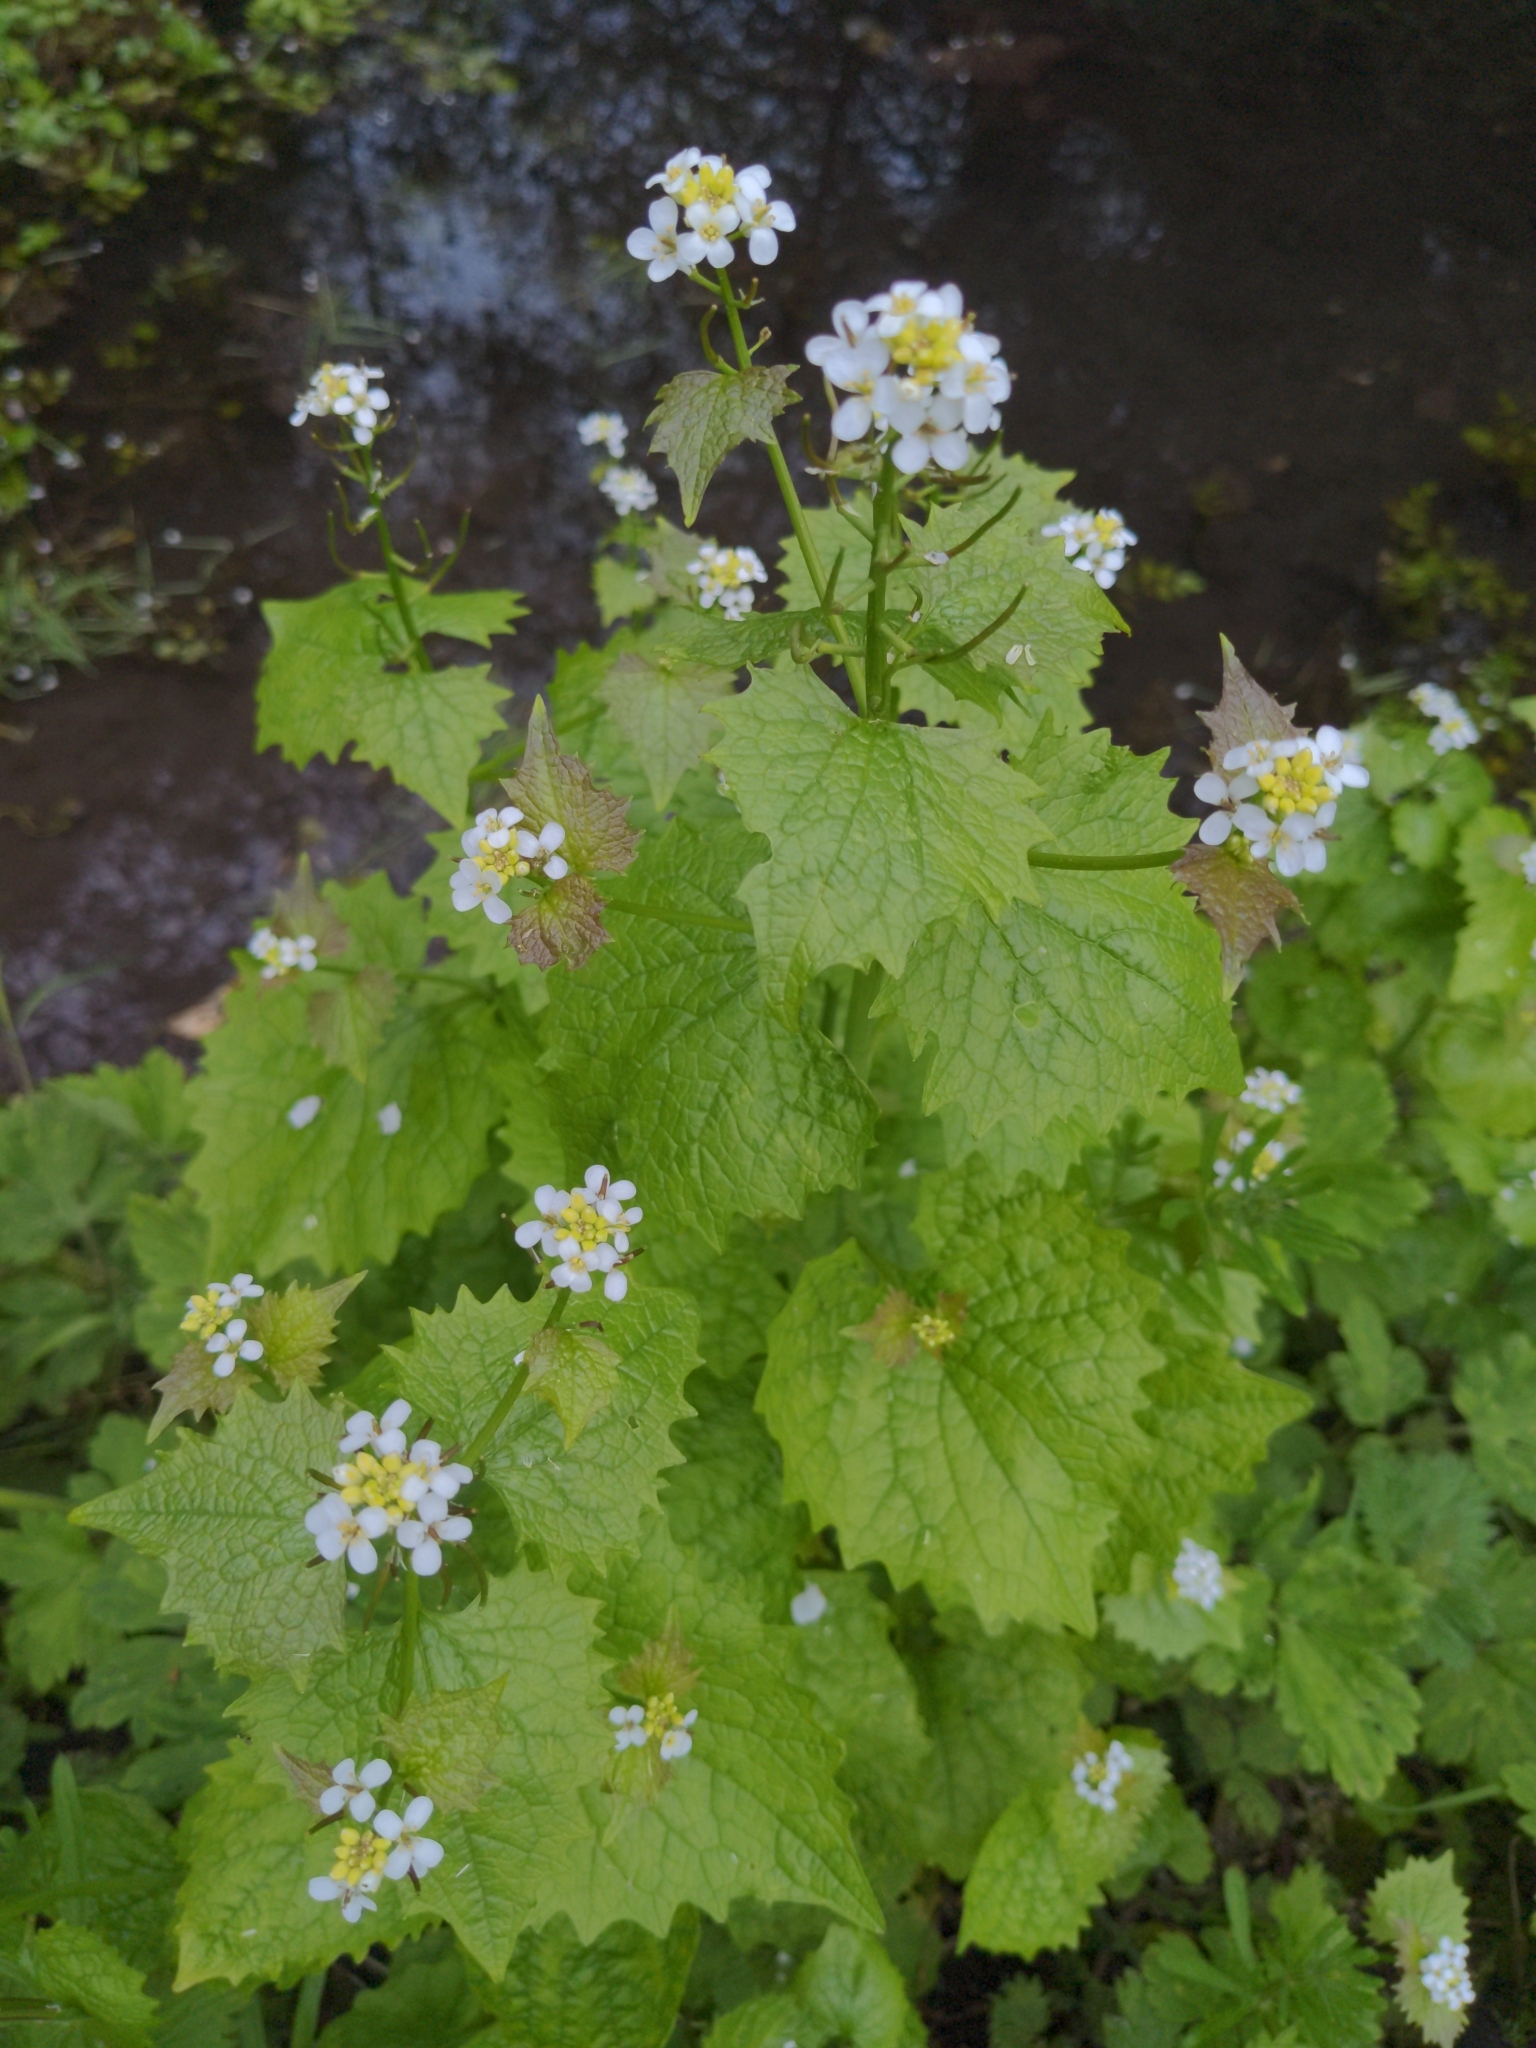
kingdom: Plantae
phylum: Tracheophyta
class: Magnoliopsida
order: Brassicales
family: Brassicaceae
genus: Alliaria
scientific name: Alliaria petiolata
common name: Garlic mustard
